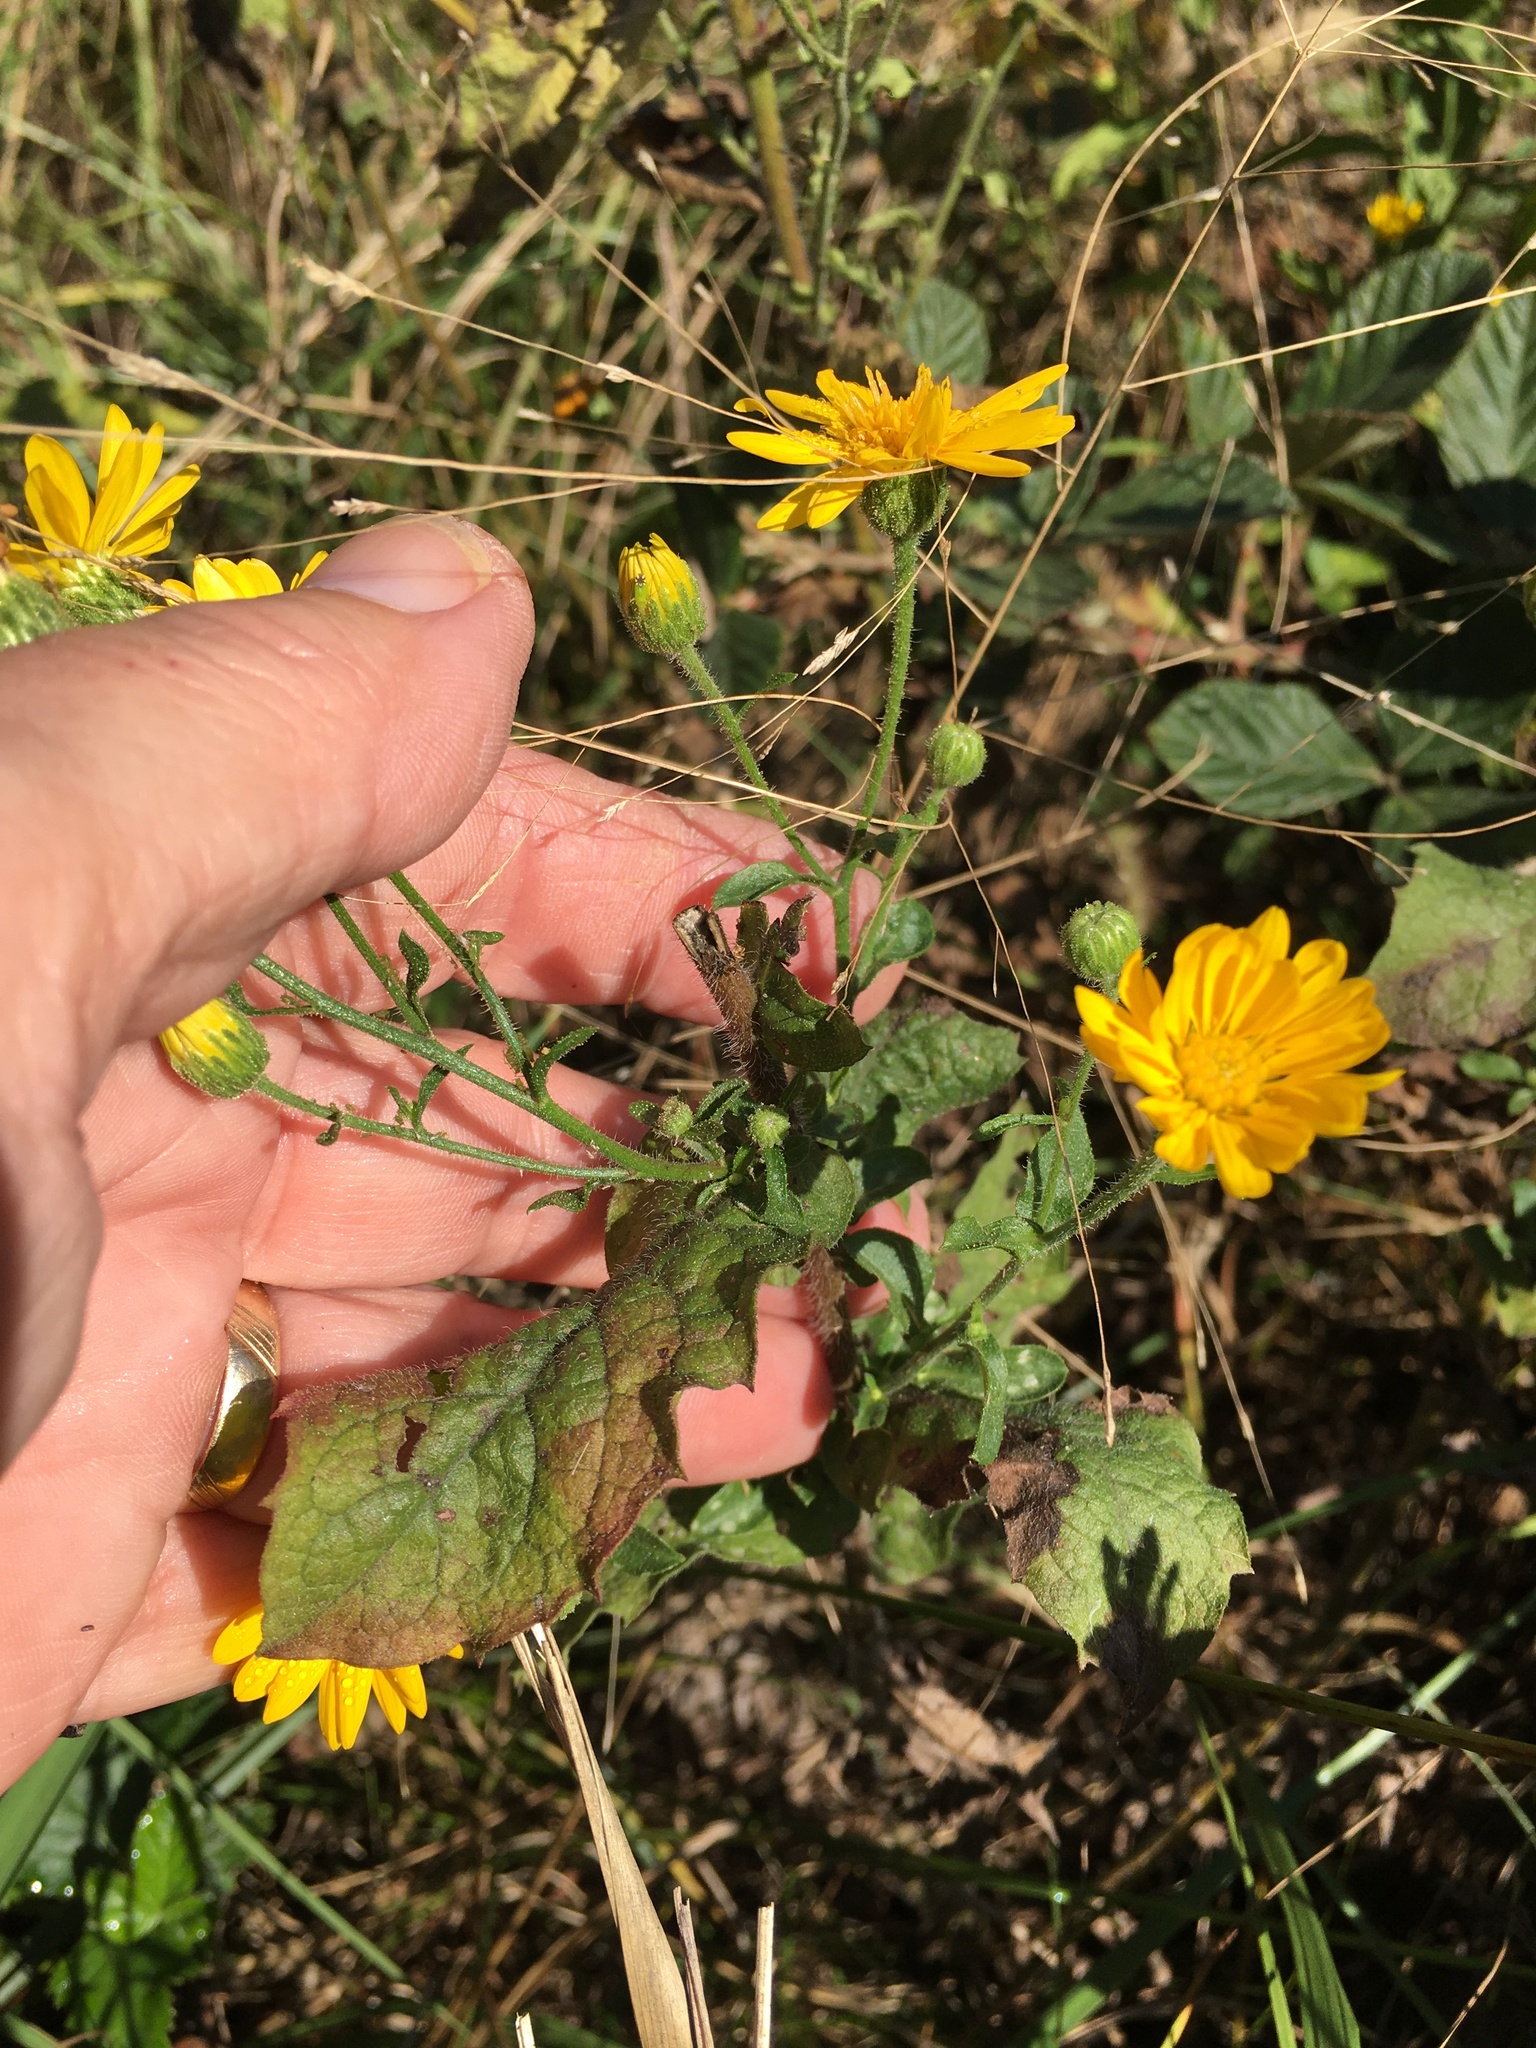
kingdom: Plantae
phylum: Tracheophyta
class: Magnoliopsida
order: Asterales
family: Asteraceae
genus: Heterotheca
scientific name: Heterotheca subaxillaris
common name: Camphorweed
